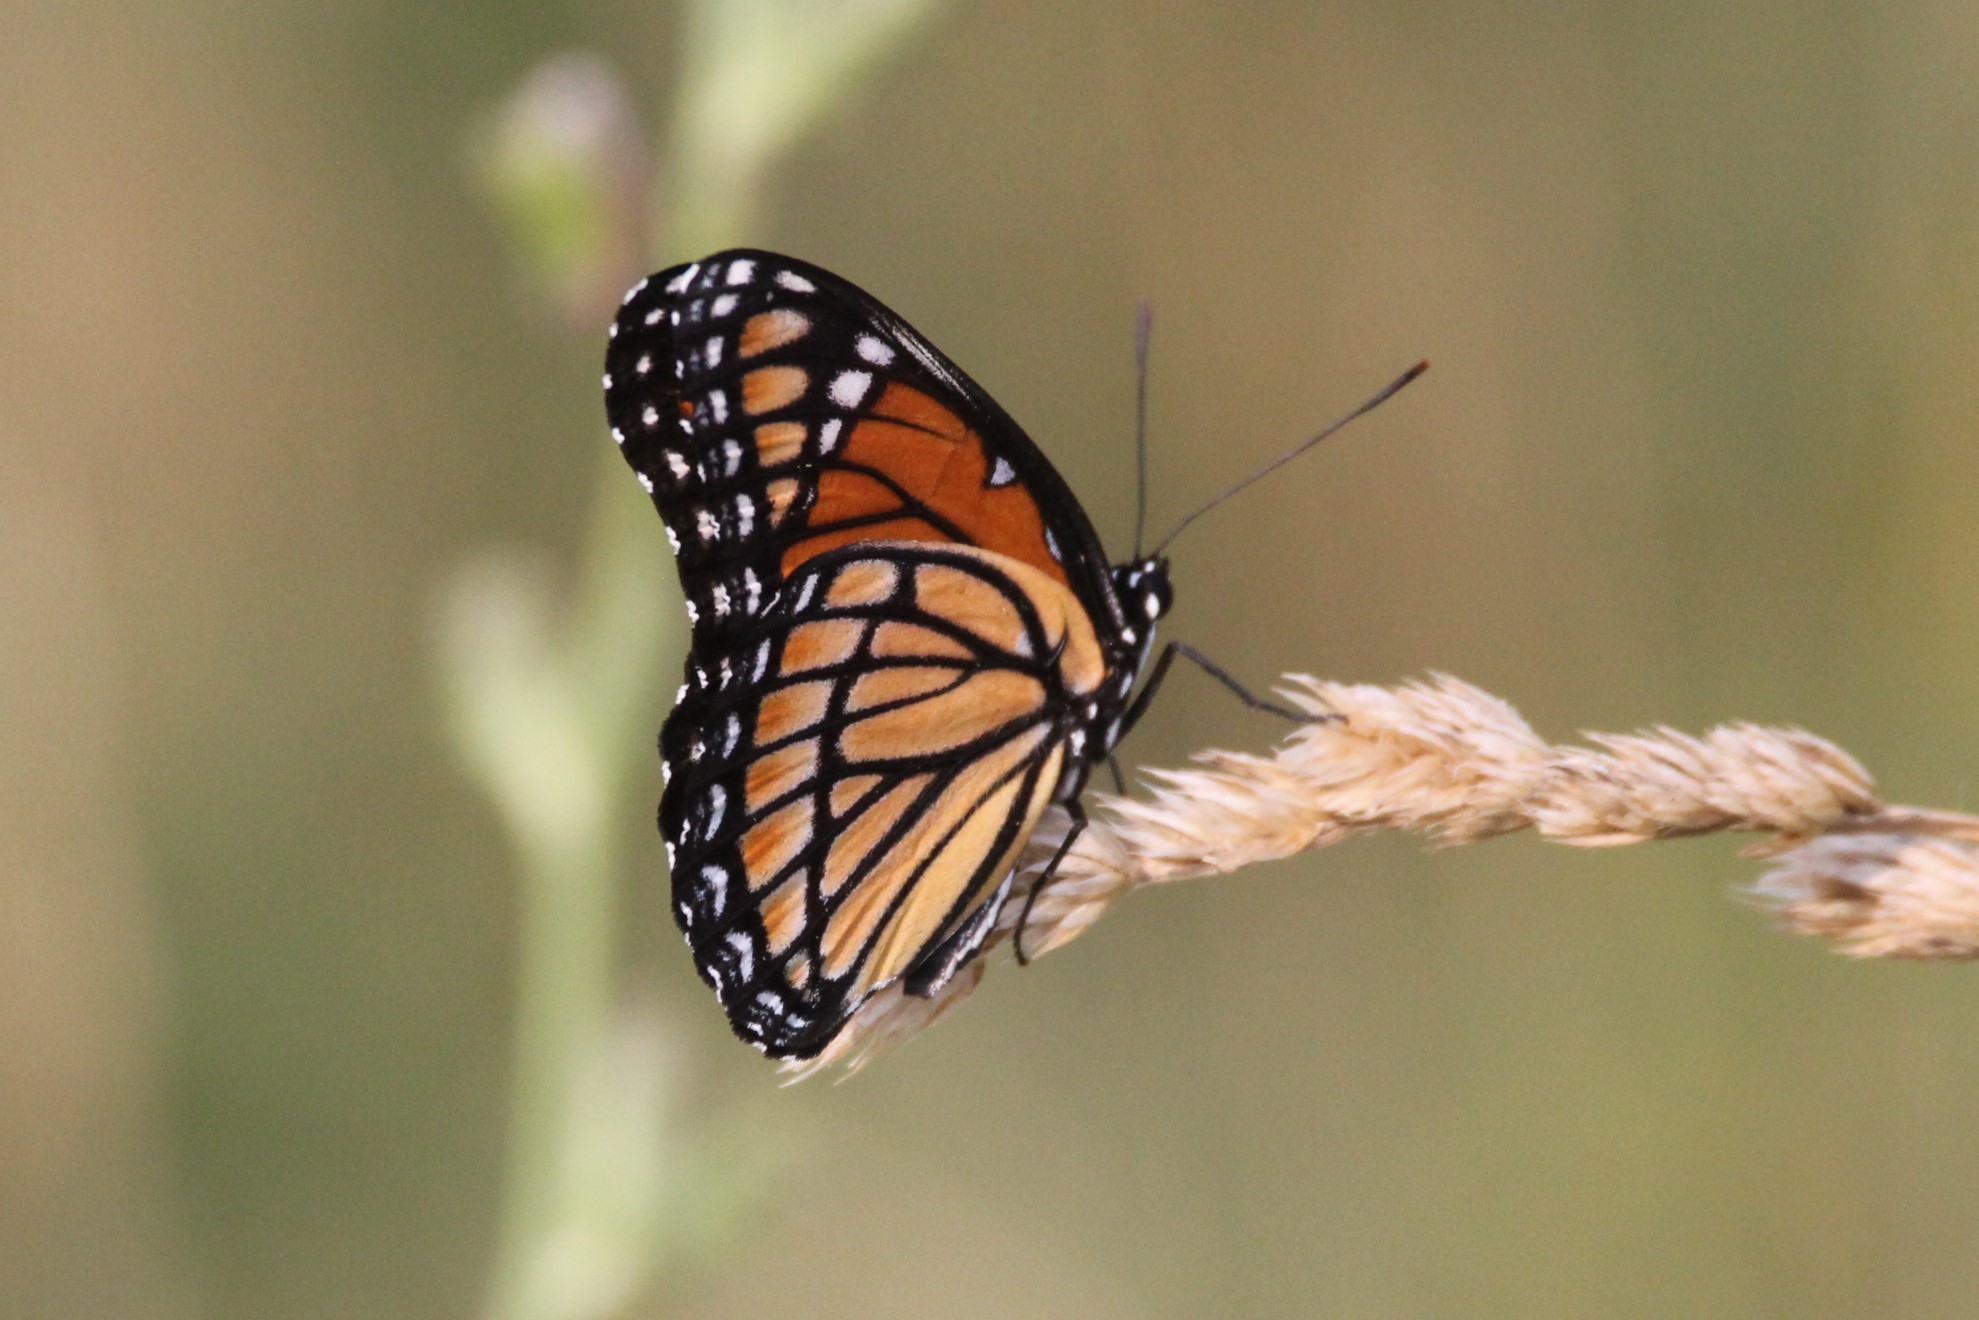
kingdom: Animalia
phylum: Arthropoda
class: Insecta
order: Lepidoptera
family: Nymphalidae
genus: Limenitis
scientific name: Limenitis archippus
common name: Viceroy
